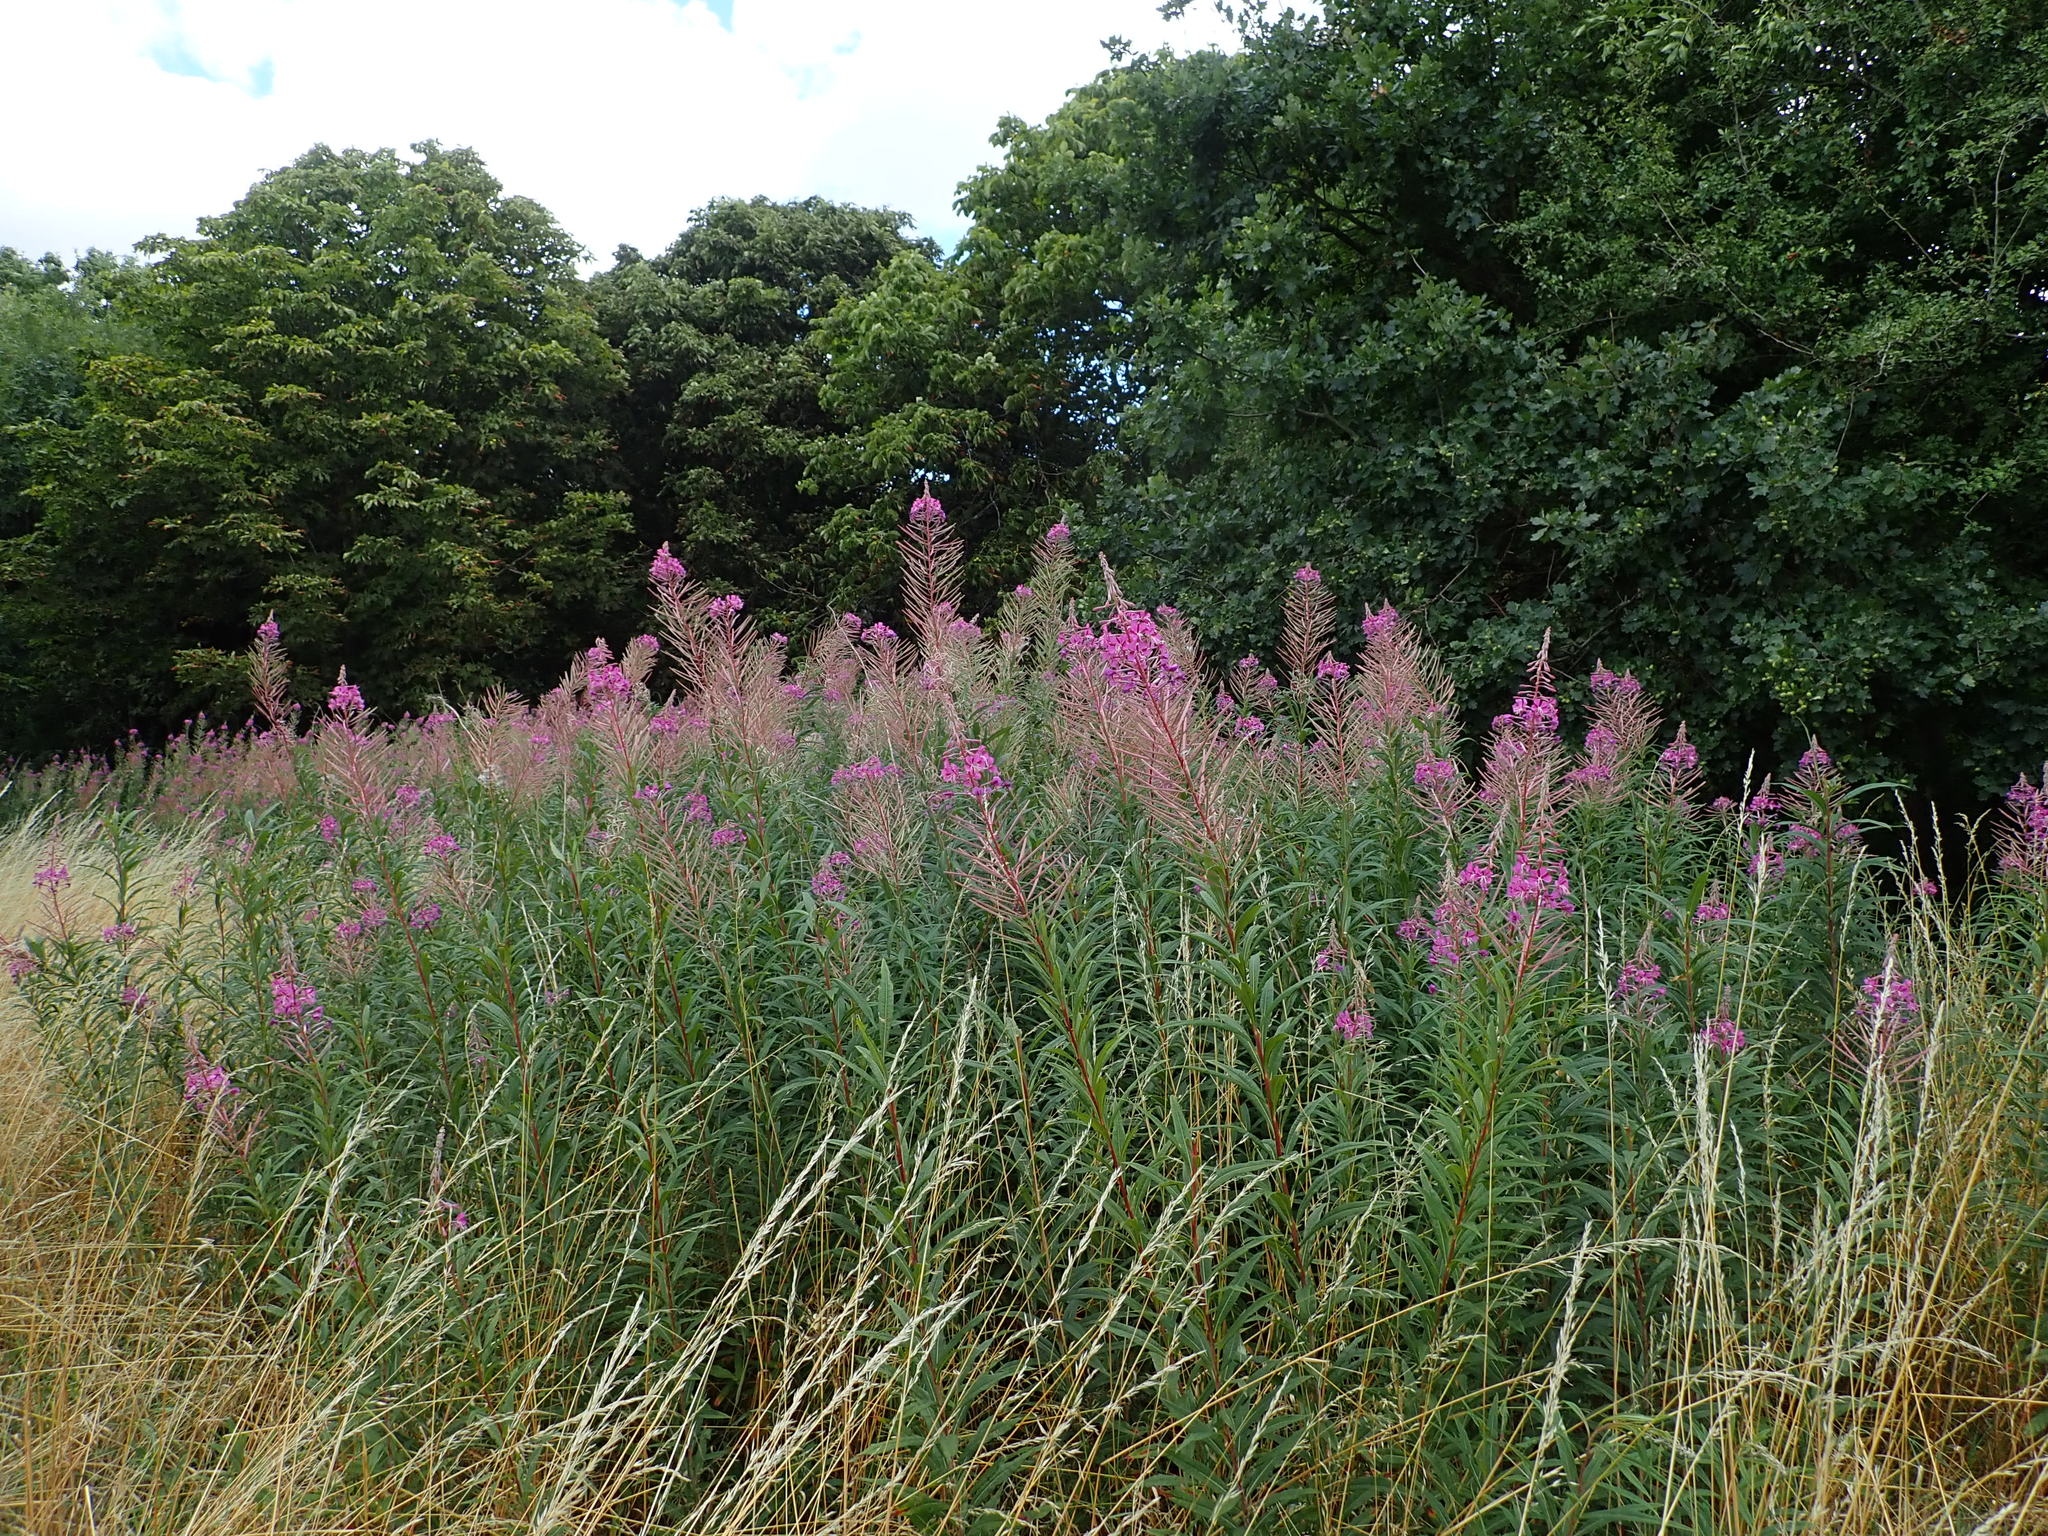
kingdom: Plantae
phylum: Tracheophyta
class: Magnoliopsida
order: Myrtales
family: Onagraceae
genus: Chamaenerion
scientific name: Chamaenerion angustifolium
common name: Fireweed
